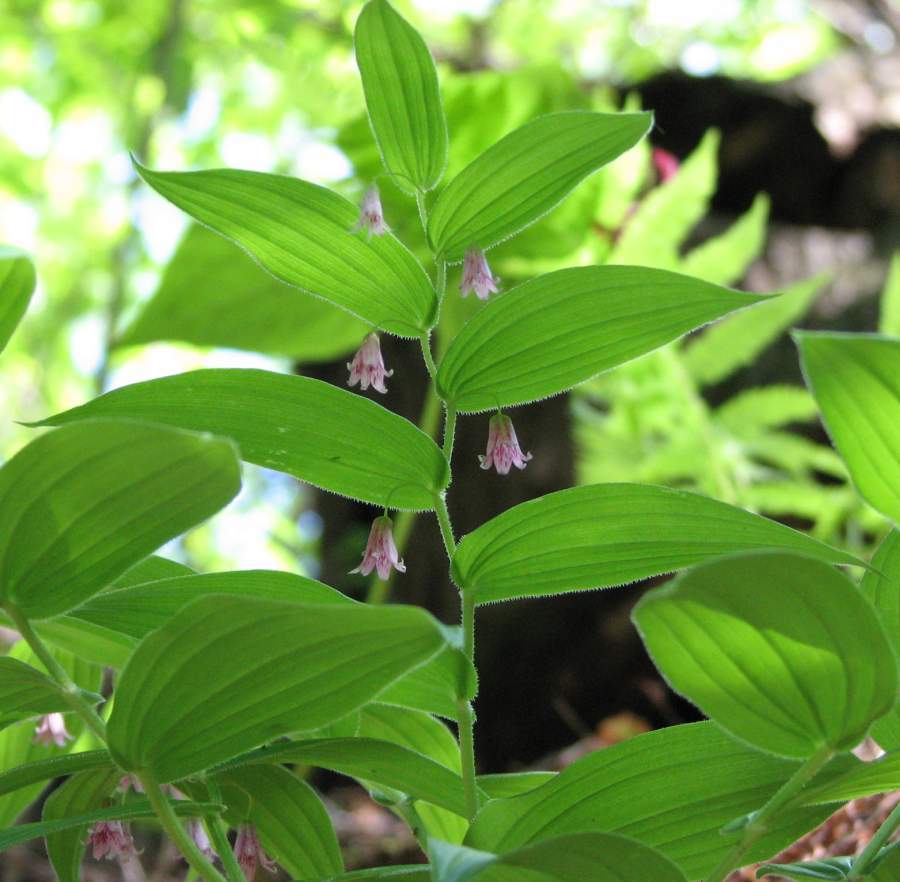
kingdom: Plantae
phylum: Tracheophyta
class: Liliopsida
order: Liliales
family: Liliaceae
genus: Streptopus
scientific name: Streptopus lanceolatus
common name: Rose mandarin
